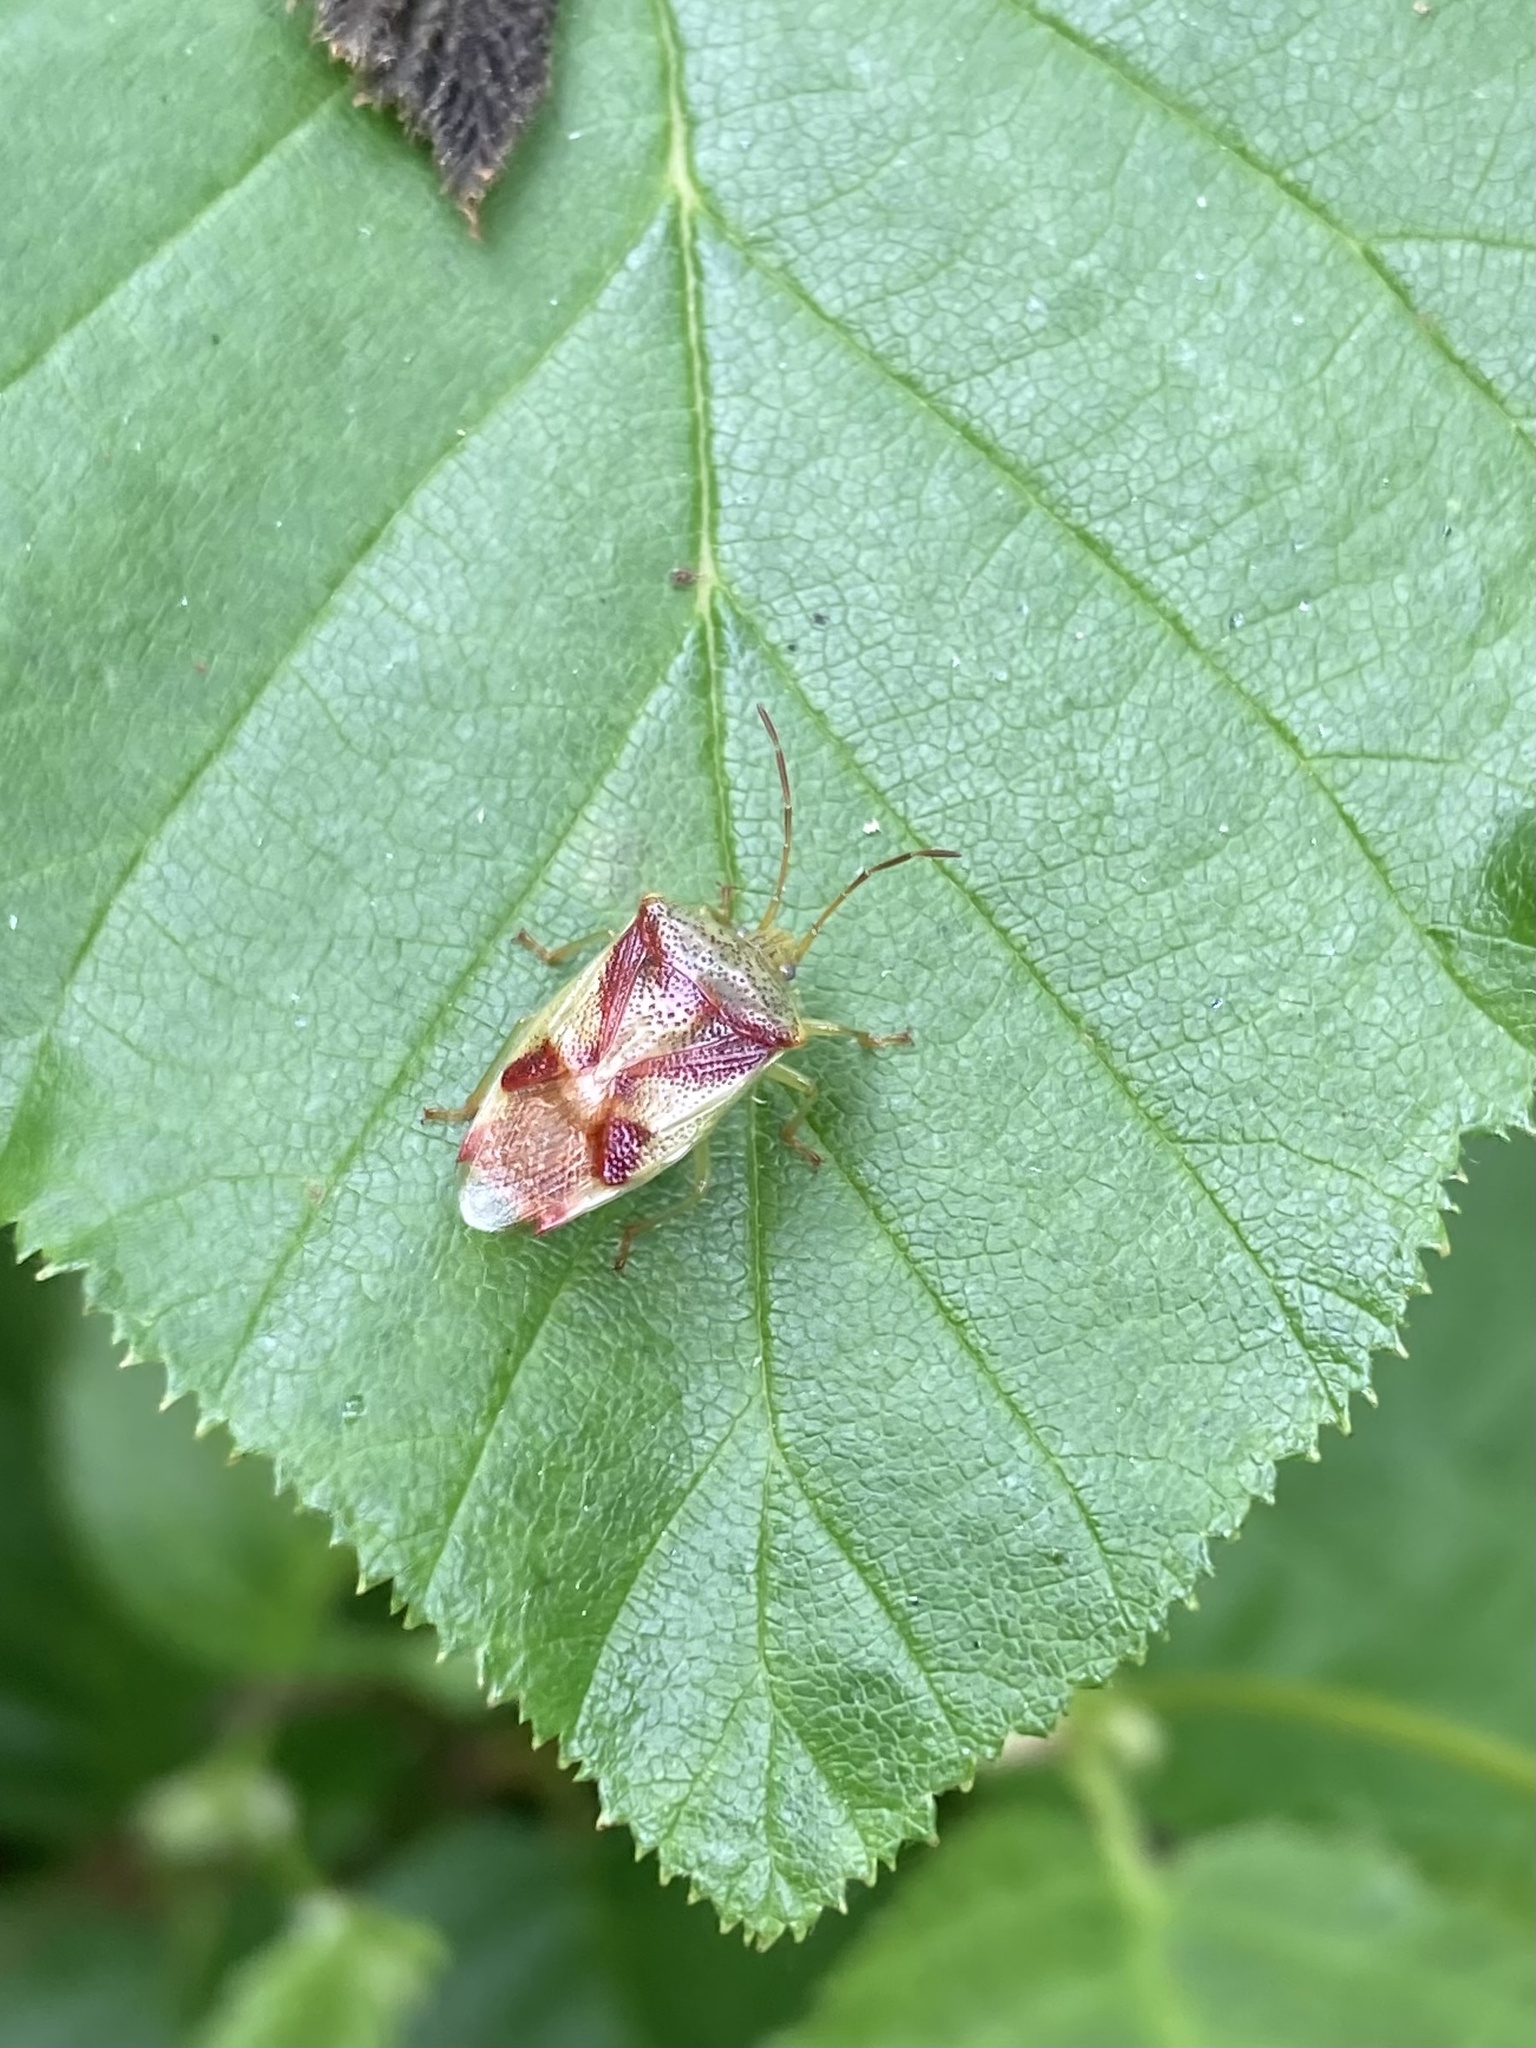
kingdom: Animalia
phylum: Arthropoda
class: Insecta
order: Hemiptera
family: Acanthosomatidae
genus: Elasmostethus
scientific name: Elasmostethus cruciatus
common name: Red-cross shield bug
